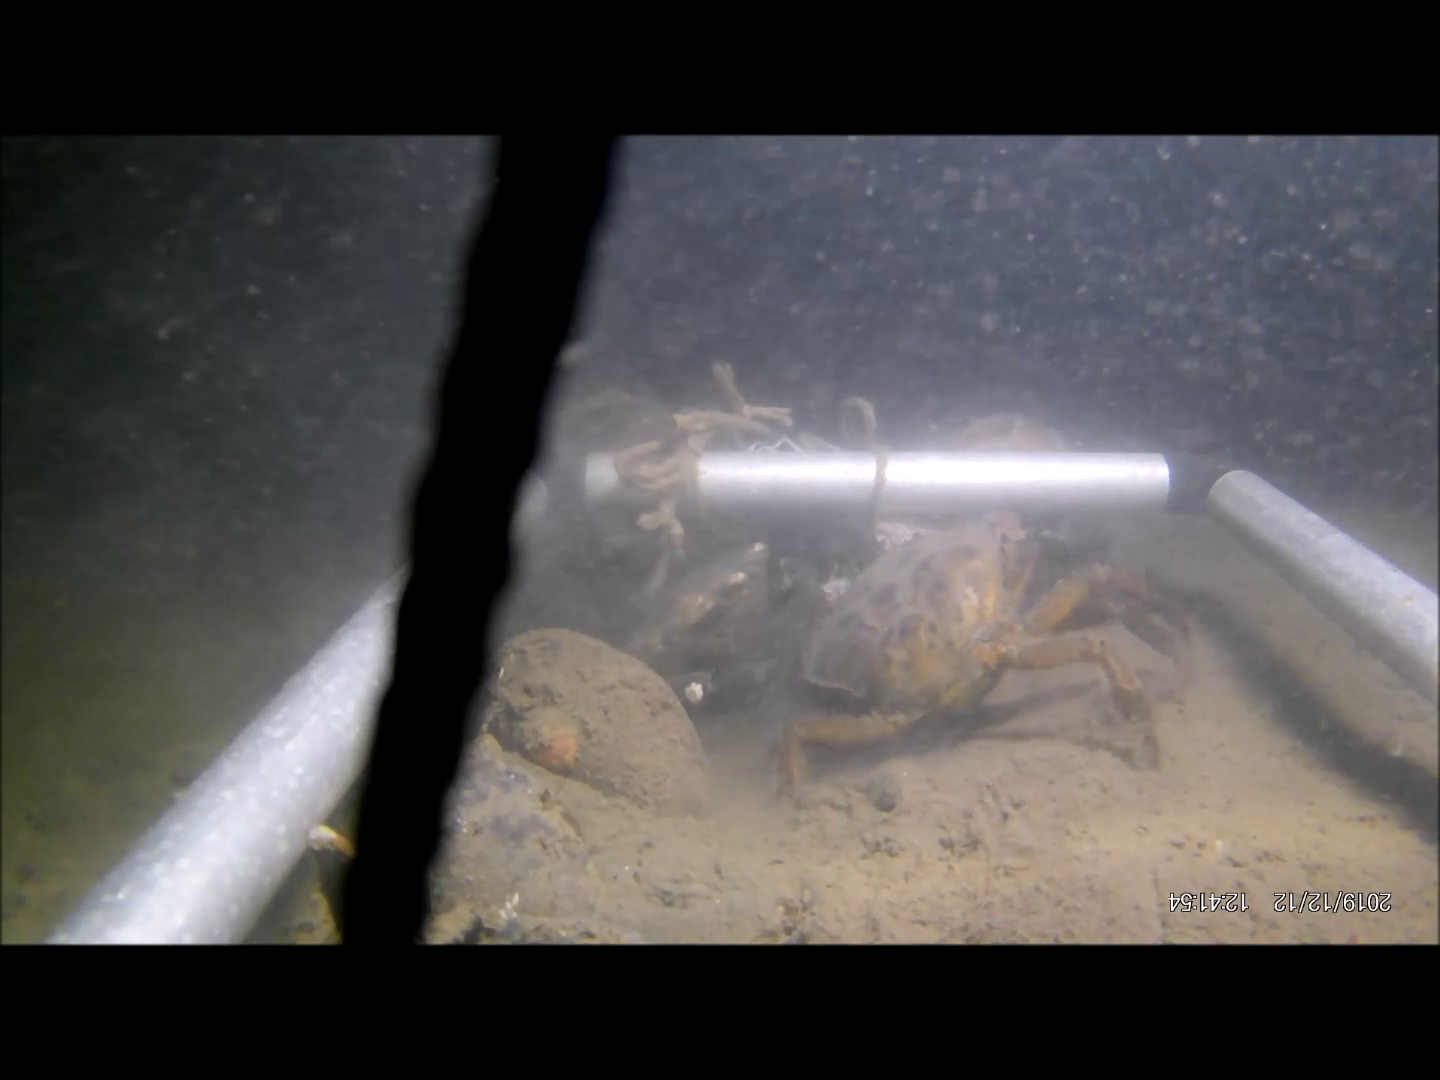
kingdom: Animalia
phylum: Arthropoda
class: Malacostraca
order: Decapoda
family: Carcinidae
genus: Carcinus
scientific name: Carcinus maenas
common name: European green crab
